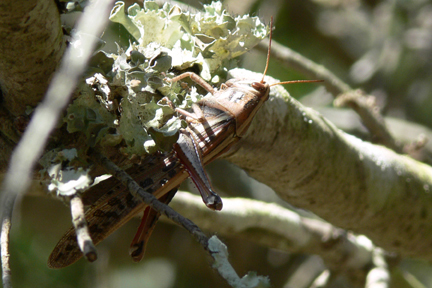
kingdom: Animalia
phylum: Arthropoda
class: Insecta
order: Orthoptera
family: Acrididae
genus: Schistocerca
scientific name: Schistocerca americana
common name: American bird locust
